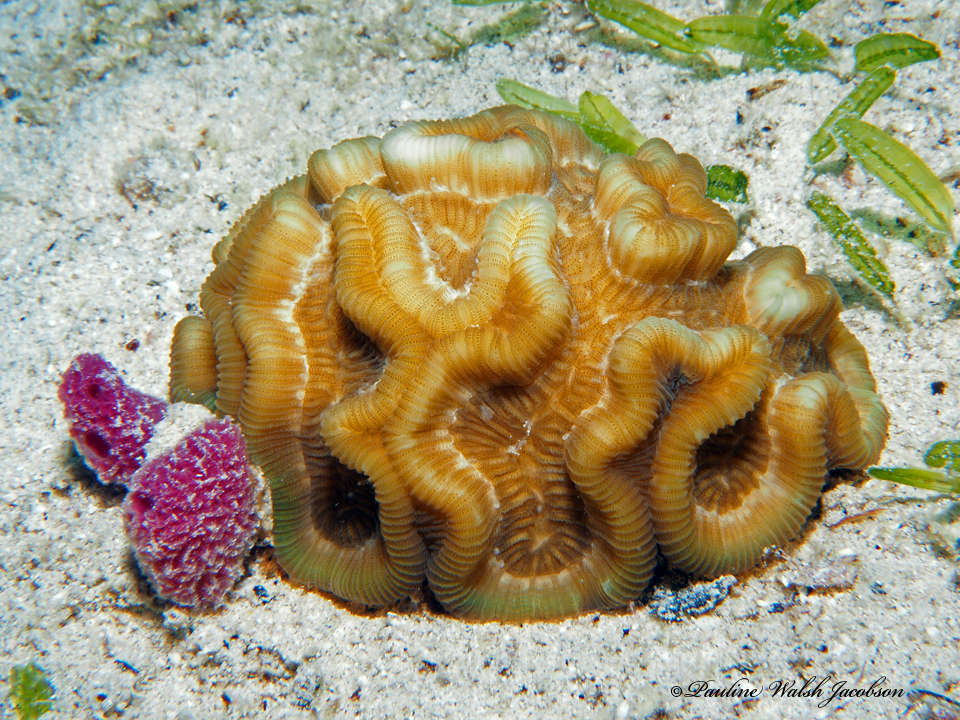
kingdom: Animalia
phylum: Cnidaria
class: Anthozoa
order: Scleractinia
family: Faviidae
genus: Manicina
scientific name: Manicina areolata
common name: Rose coral
